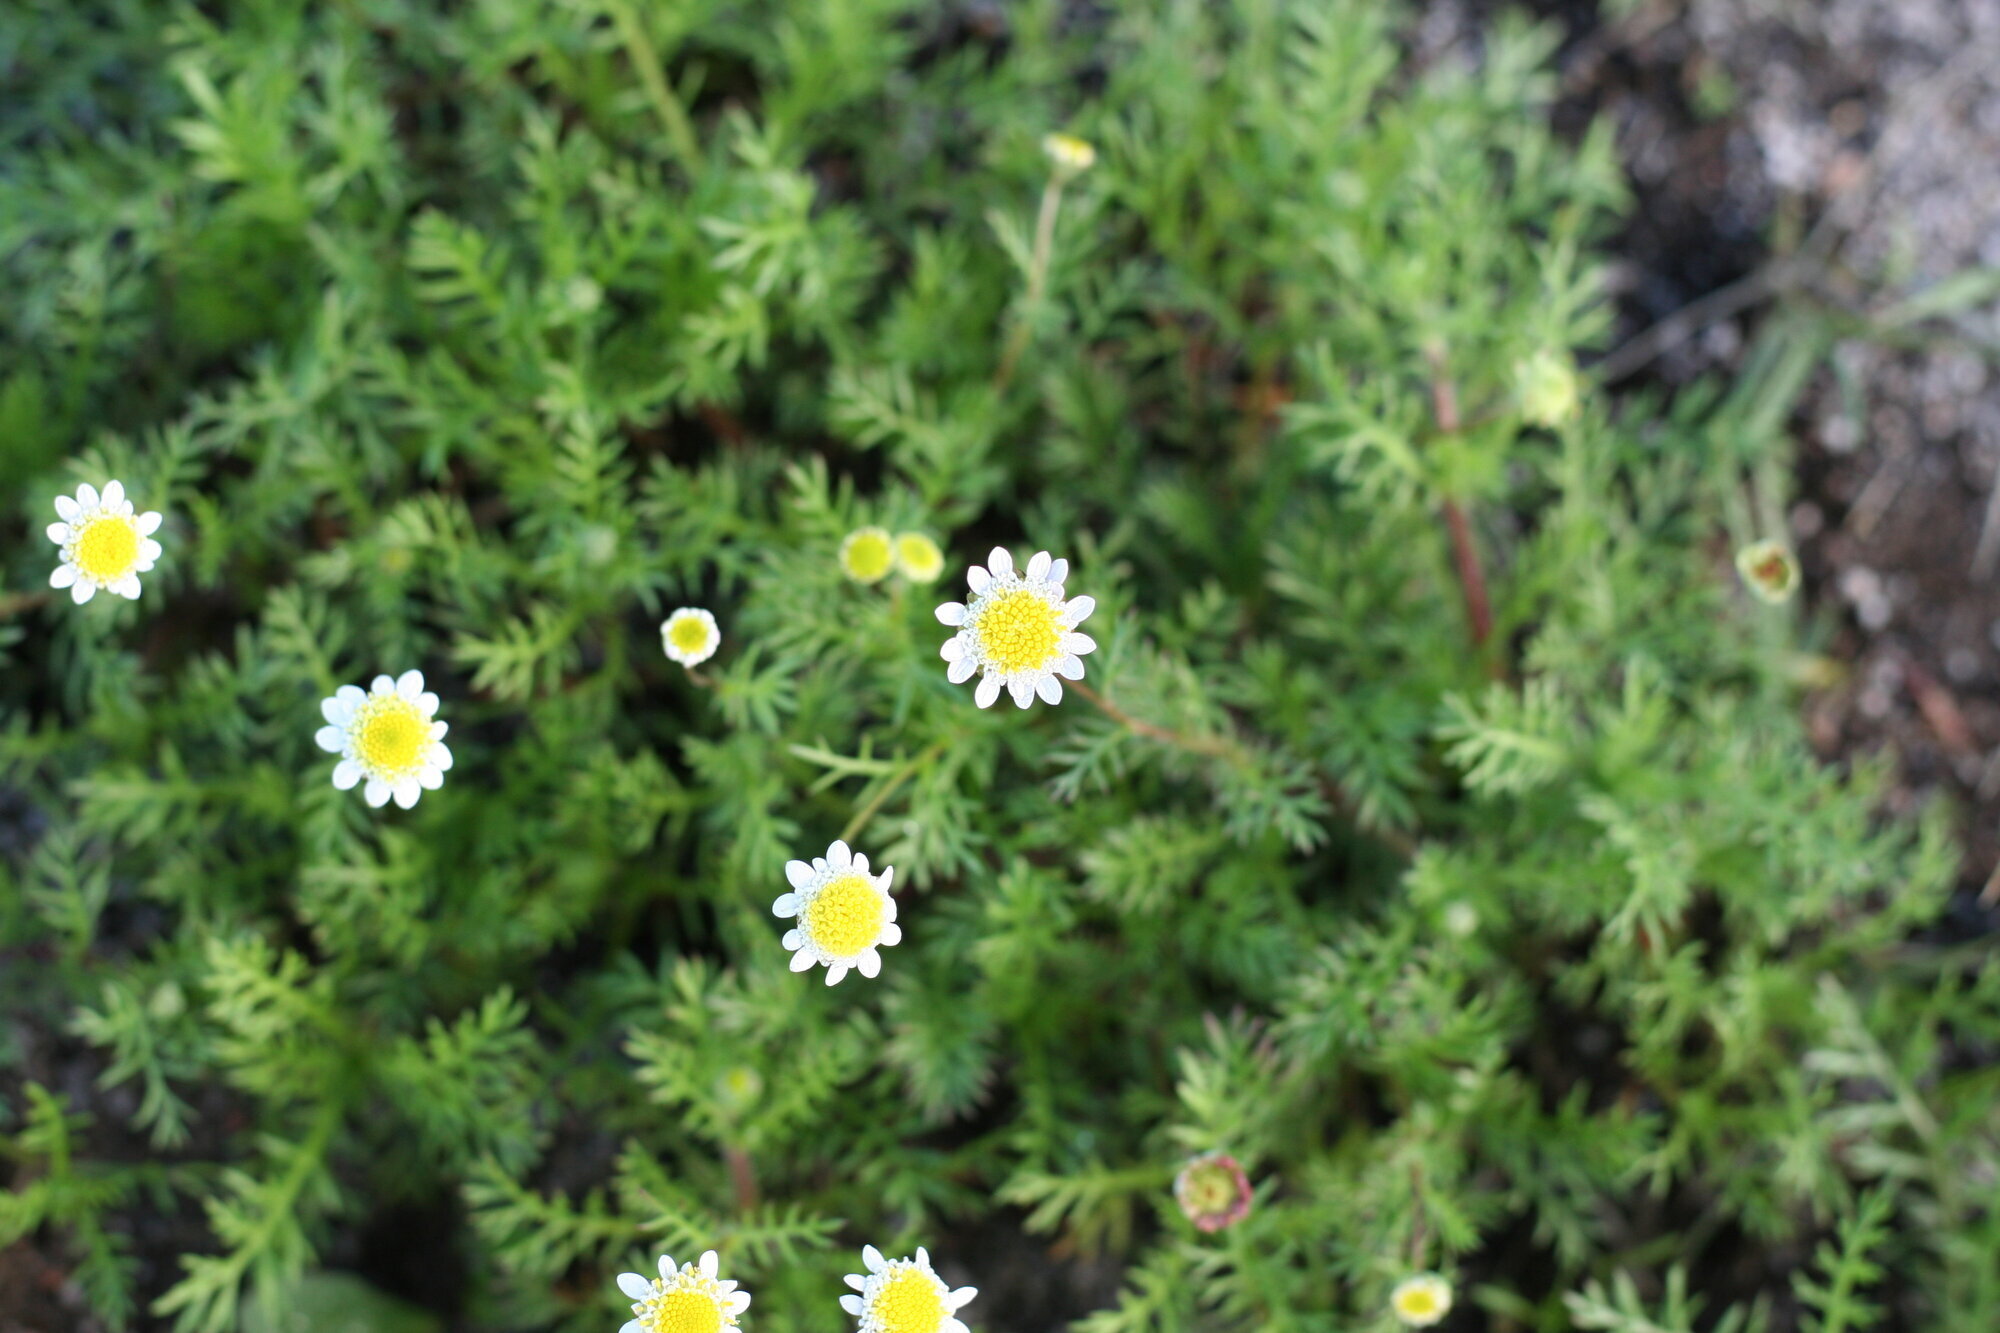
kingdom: Plantae
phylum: Tracheophyta
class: Magnoliopsida
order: Asterales
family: Asteraceae
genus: Cotula
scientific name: Cotula turbinata
